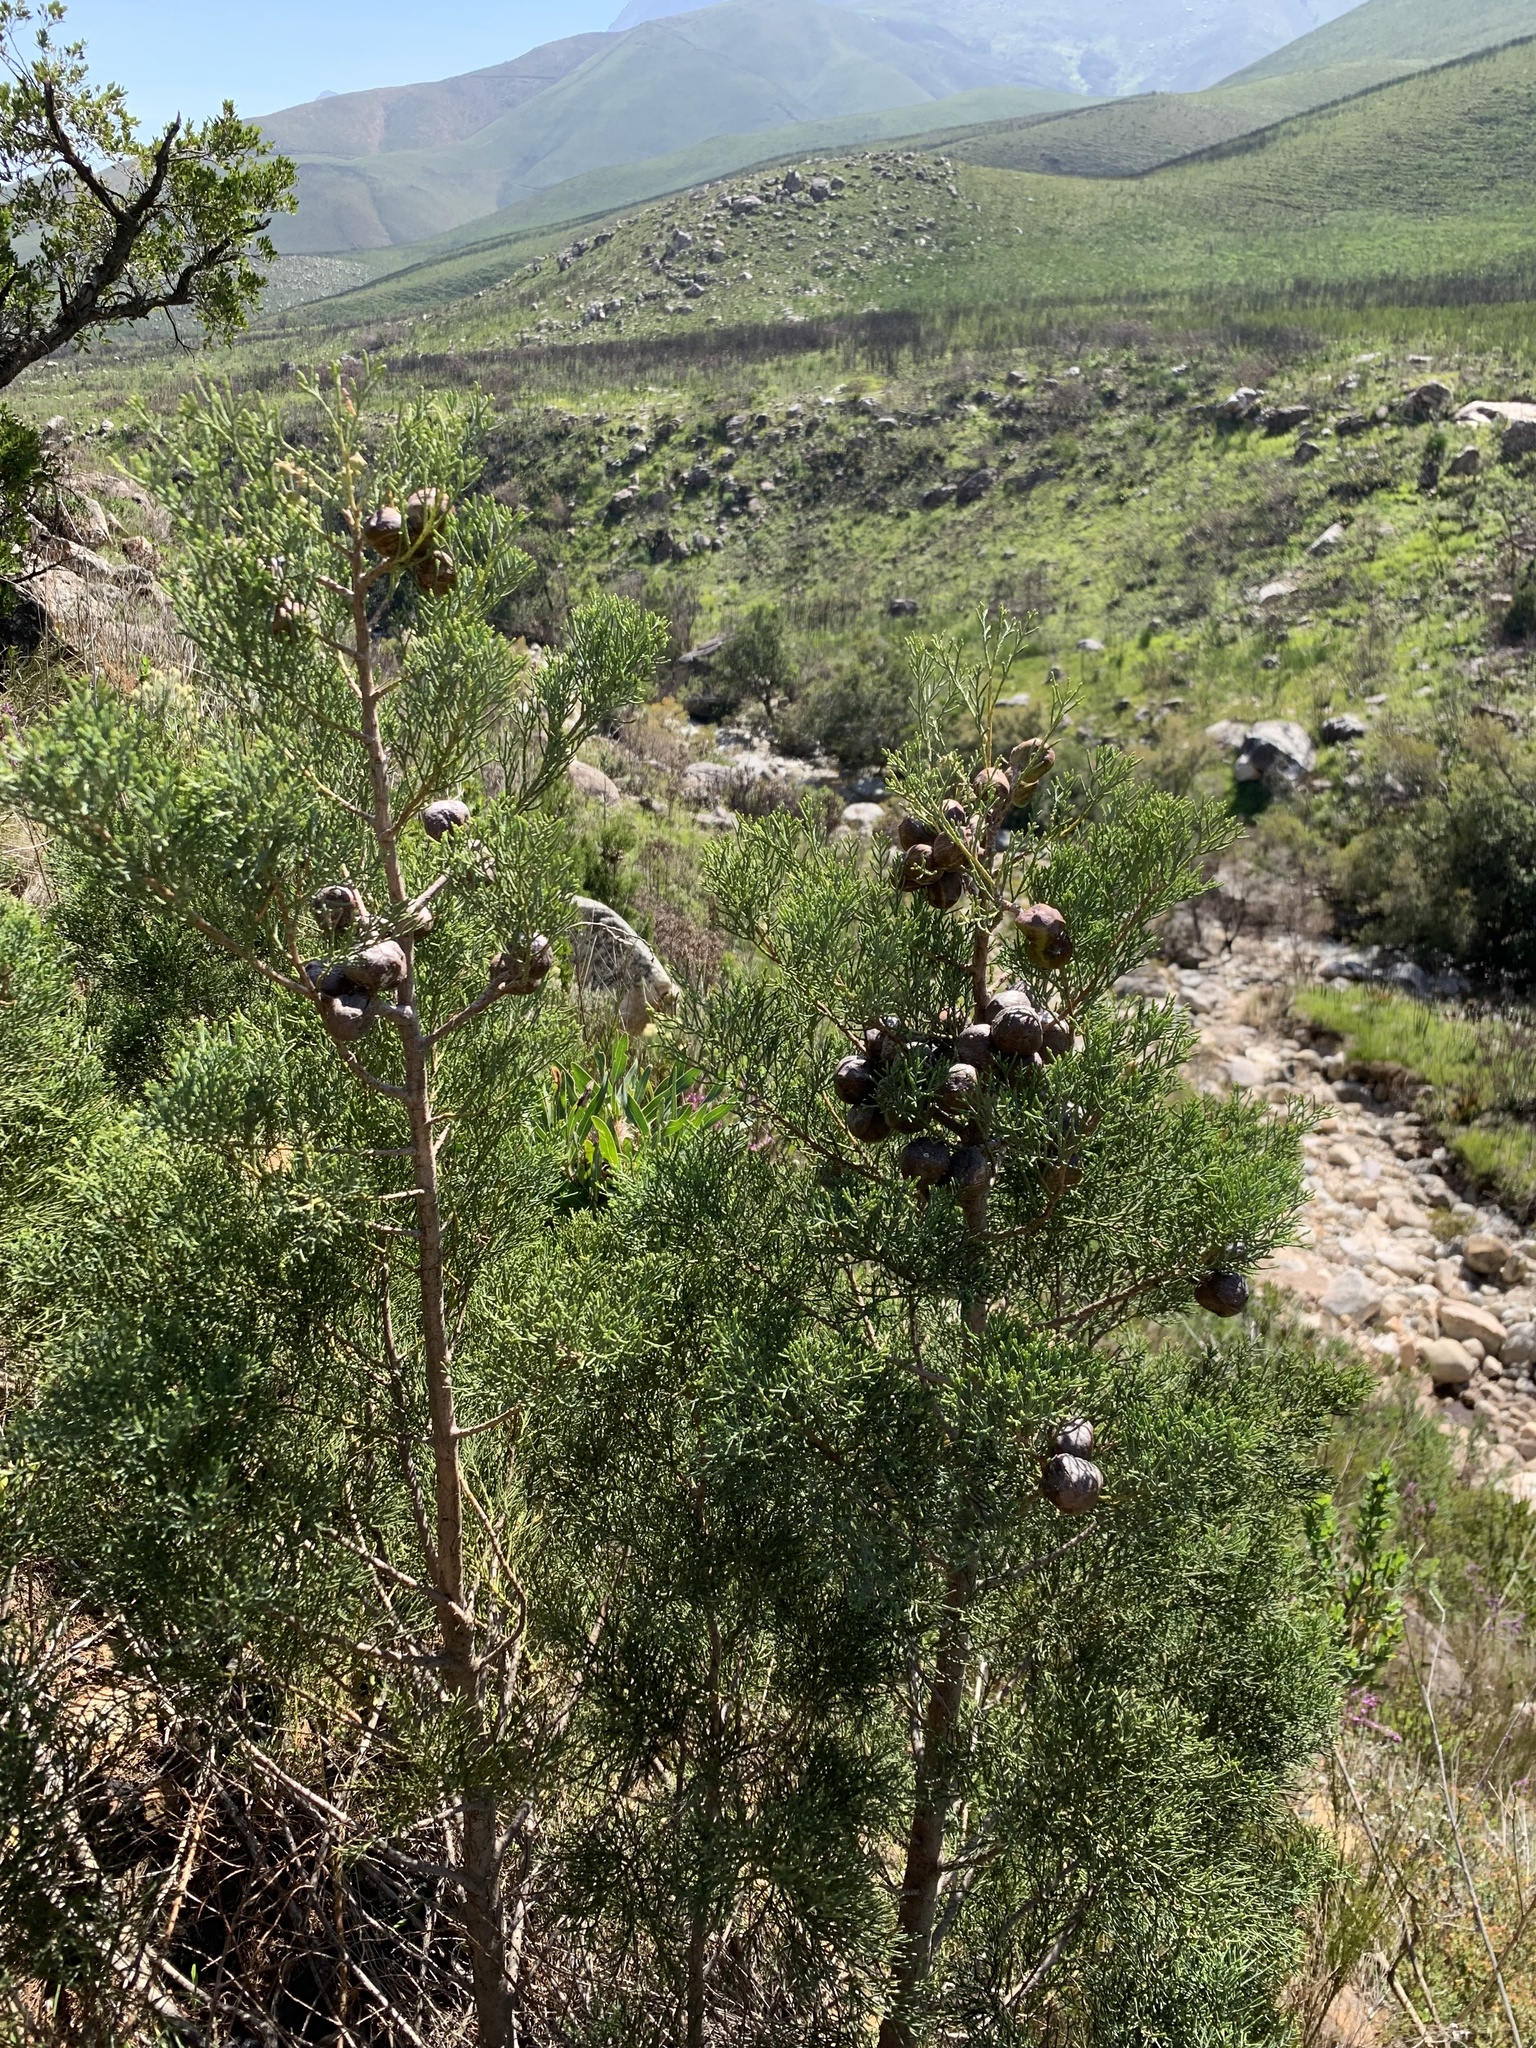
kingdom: Plantae
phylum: Tracheophyta
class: Pinopsida
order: Pinales
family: Cupressaceae
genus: Widdringtonia
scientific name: Widdringtonia nodiflora
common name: Cape cypress
